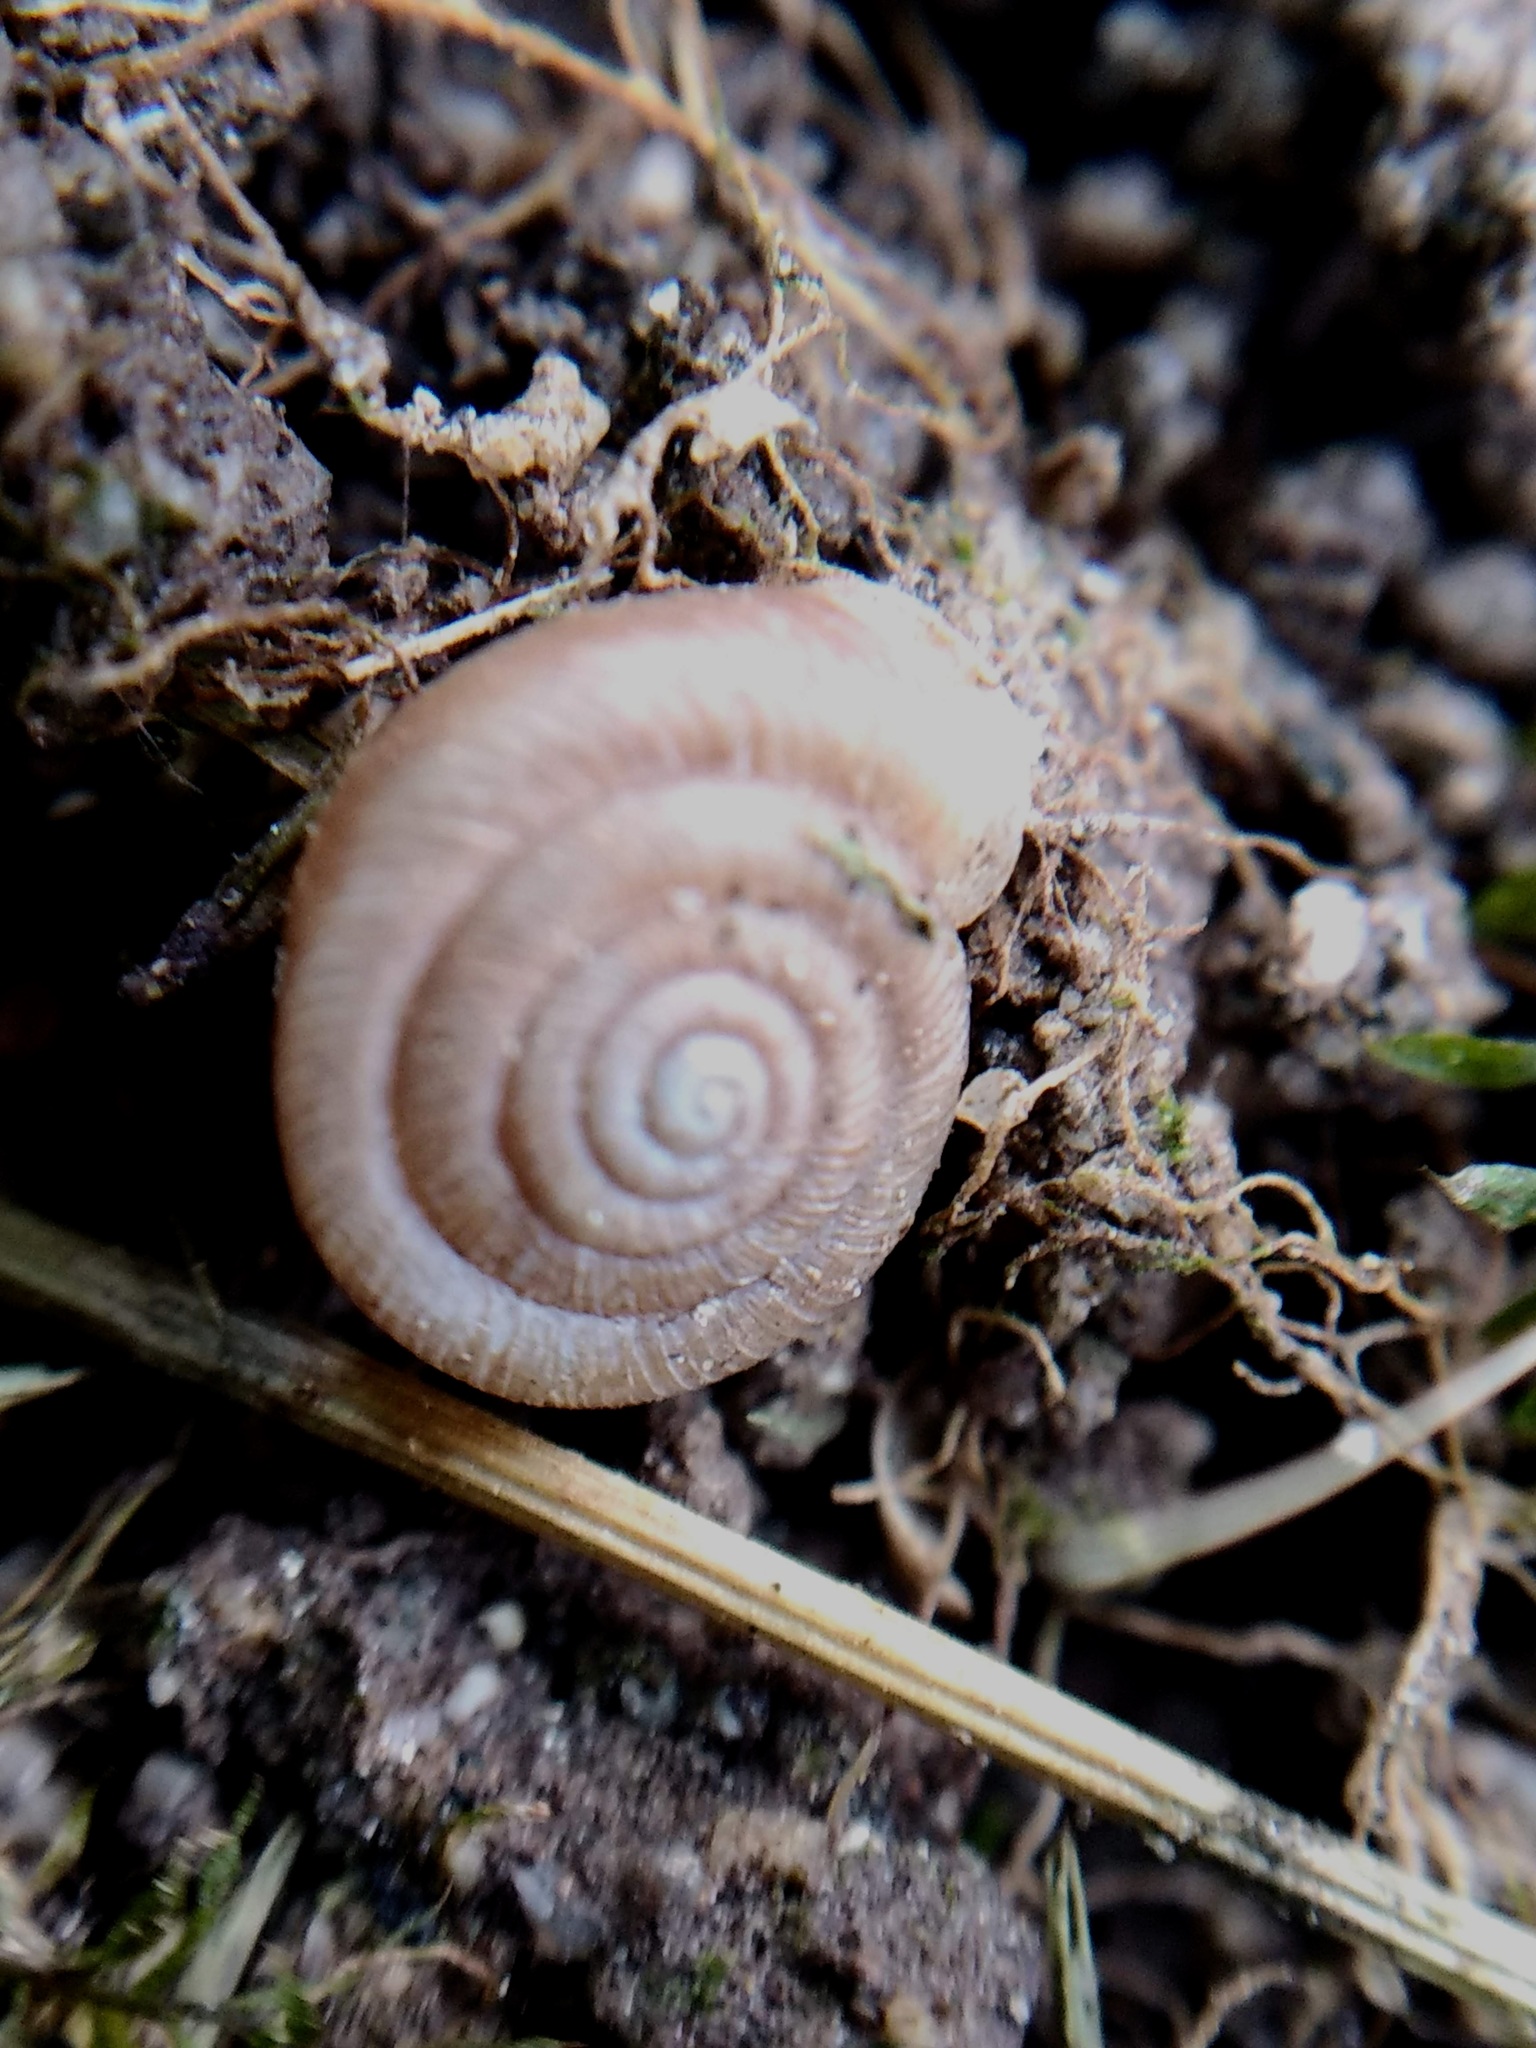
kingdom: Animalia
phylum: Mollusca
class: Gastropoda
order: Stylommatophora
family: Polygyridae
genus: Polygyra
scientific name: Polygyra cereolus
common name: Southern flatcone snail
